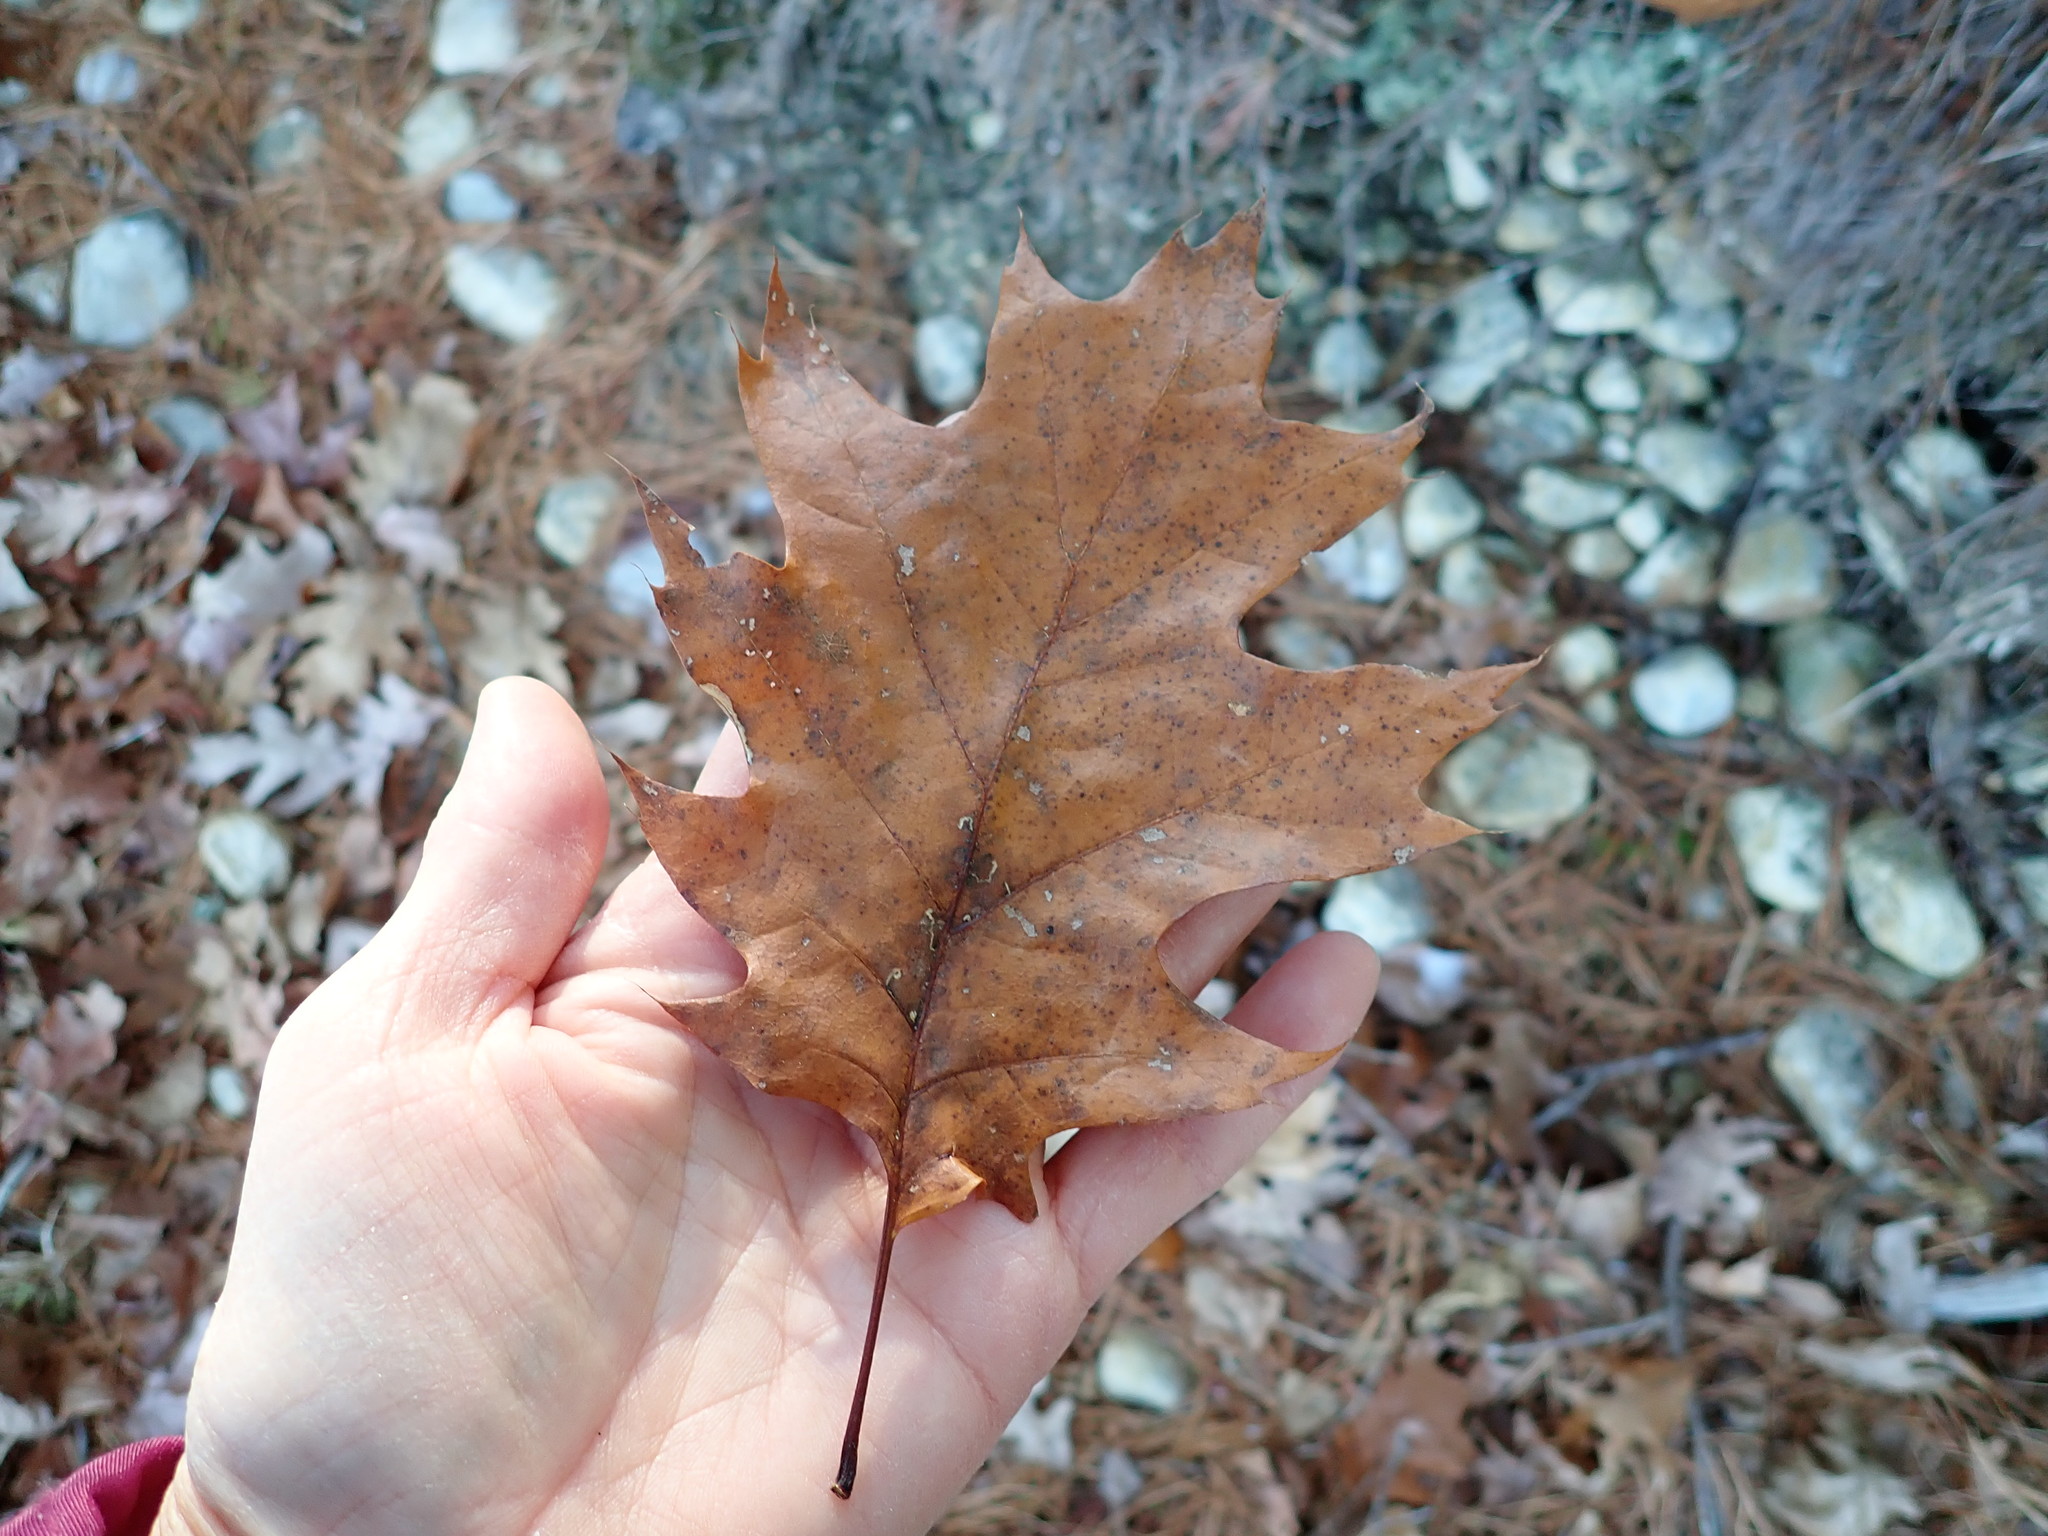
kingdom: Plantae
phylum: Tracheophyta
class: Magnoliopsida
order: Fagales
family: Fagaceae
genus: Quercus
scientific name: Quercus rubra
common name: Red oak
